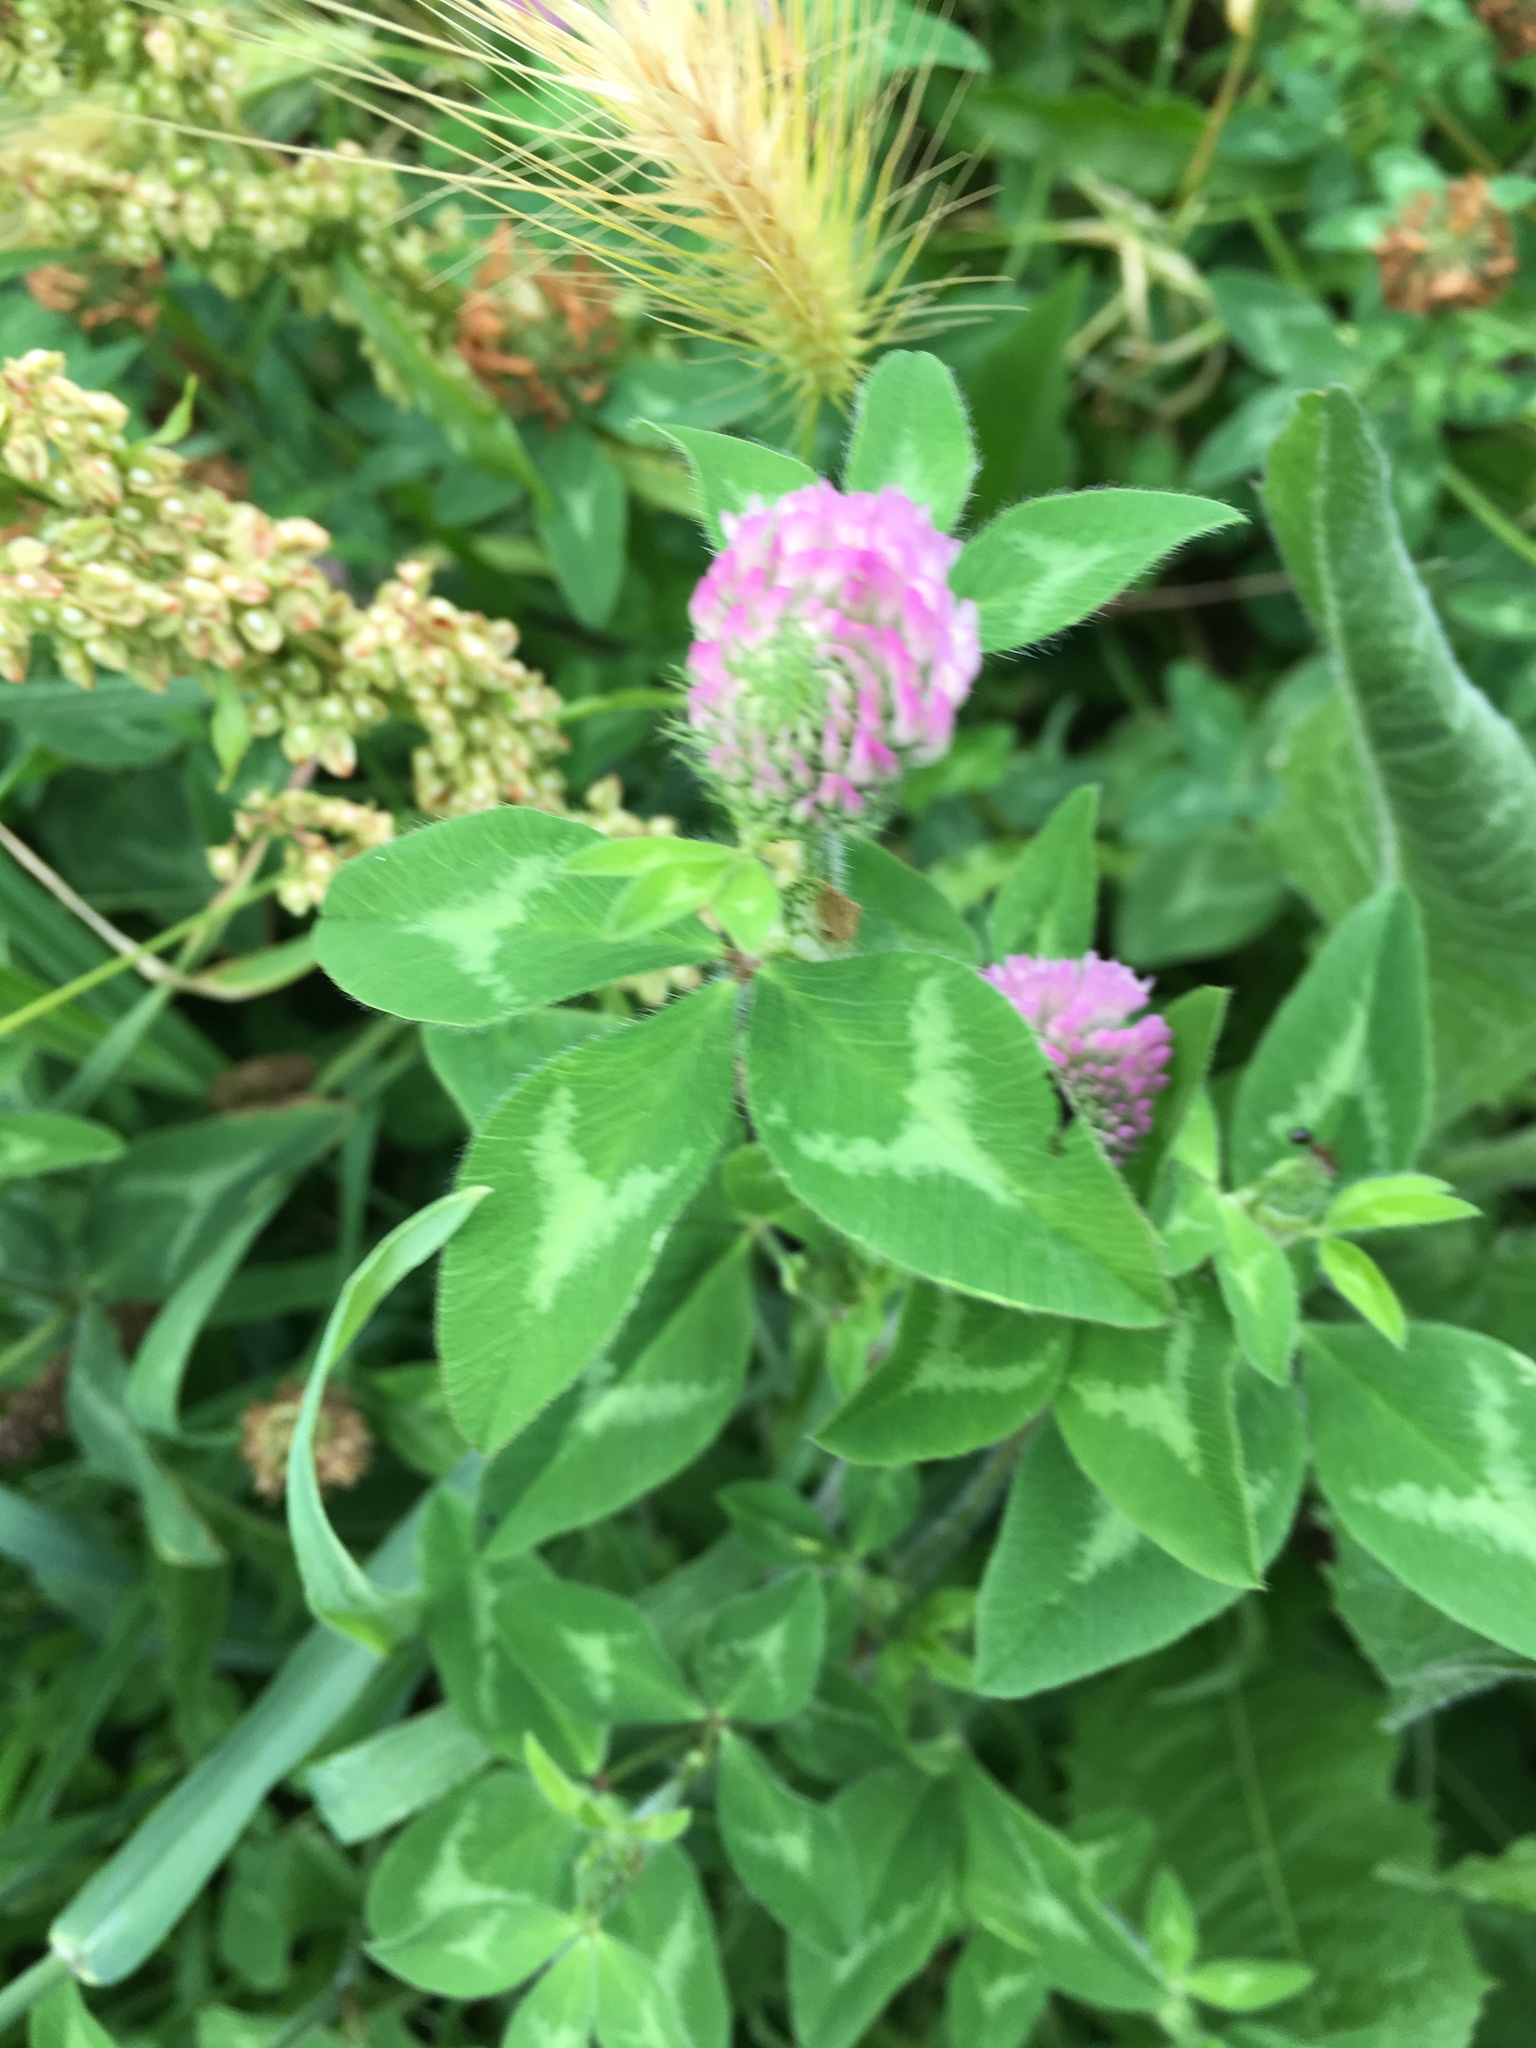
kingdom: Plantae
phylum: Tracheophyta
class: Magnoliopsida
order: Fabales
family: Fabaceae
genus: Trifolium
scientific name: Trifolium pratense
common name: Red clover
